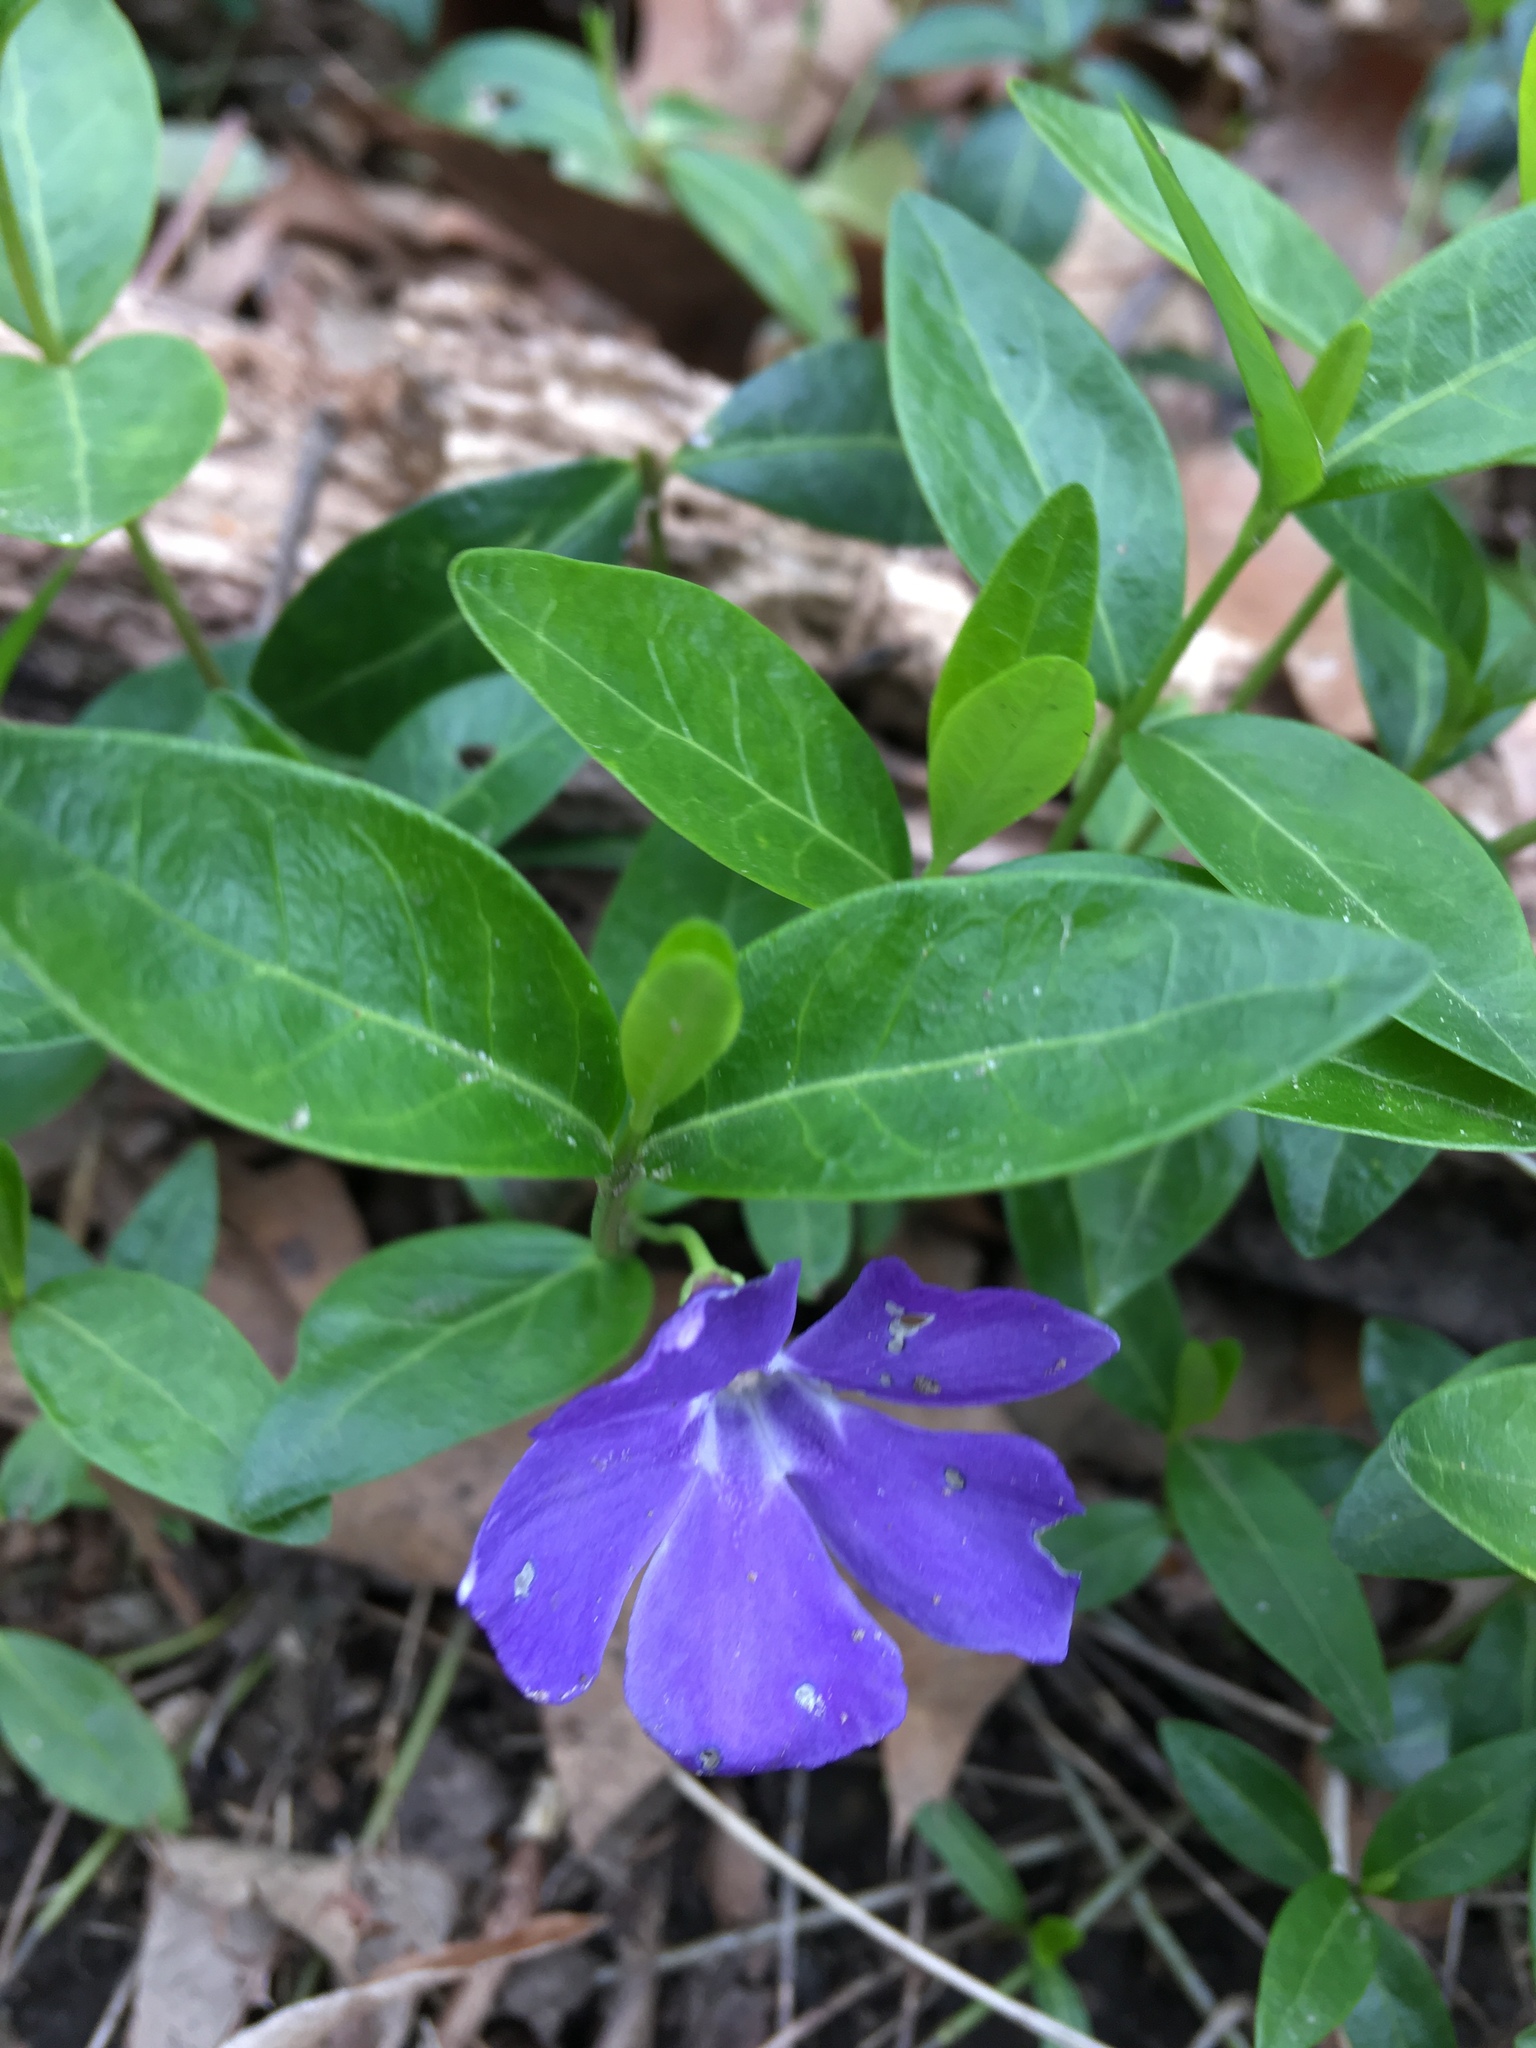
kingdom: Plantae
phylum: Tracheophyta
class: Magnoliopsida
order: Gentianales
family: Apocynaceae
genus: Vinca
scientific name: Vinca minor
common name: Lesser periwinkle
